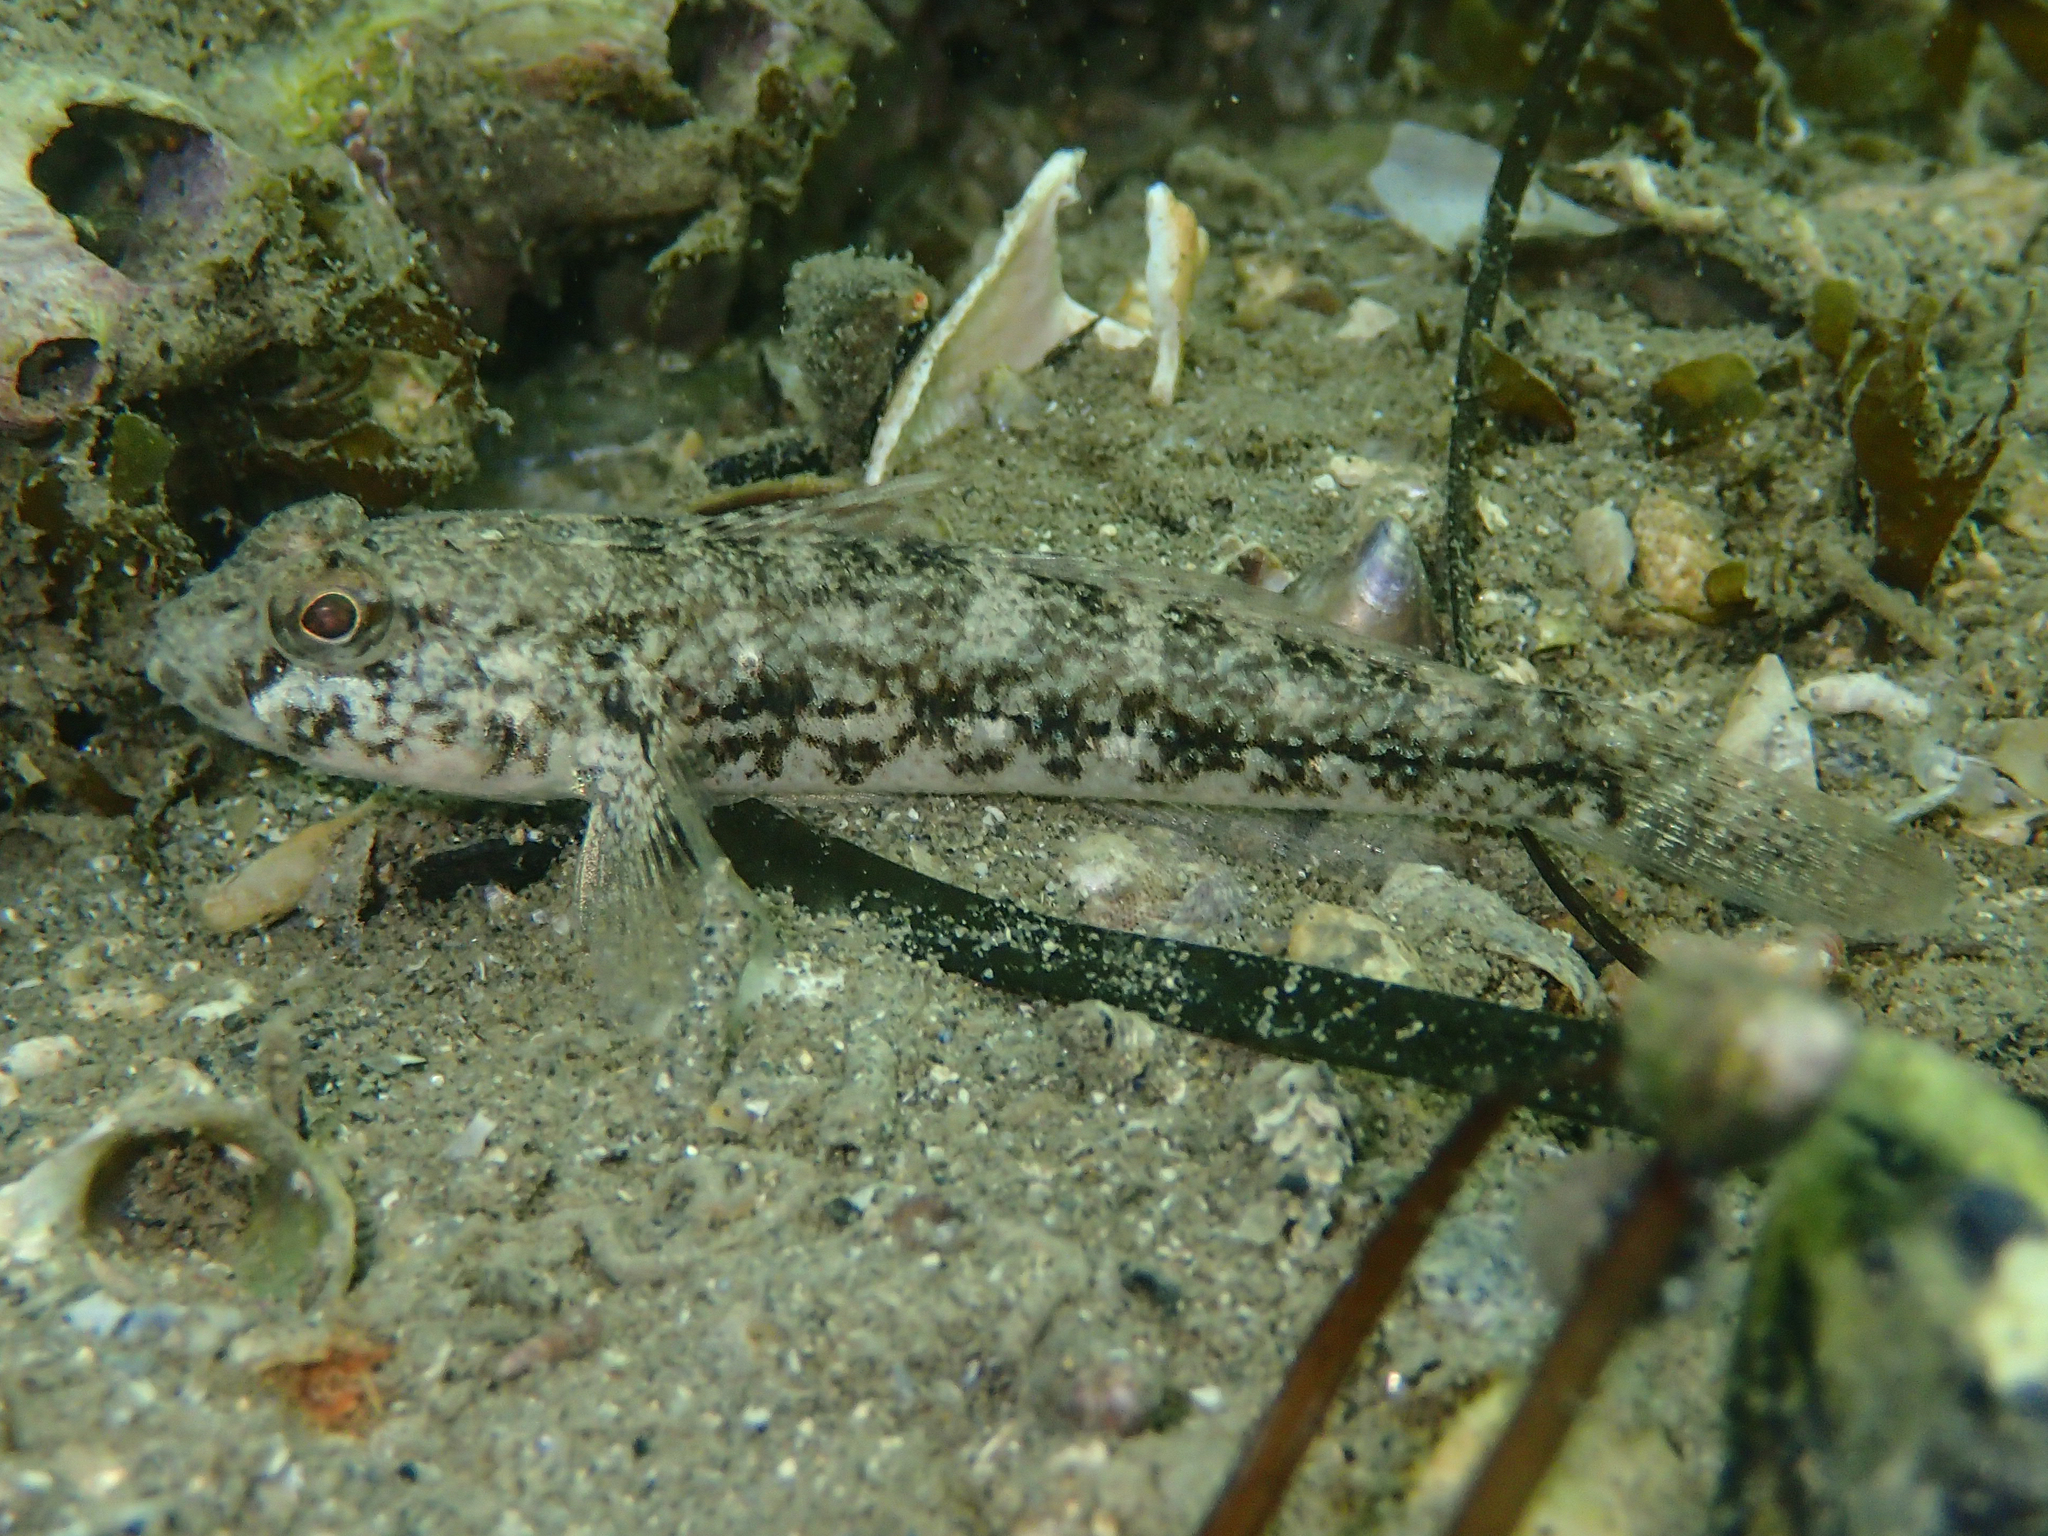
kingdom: Animalia
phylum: Chordata
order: Perciformes
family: Gobiidae
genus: Gobius
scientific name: Gobius niger
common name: Black goby
